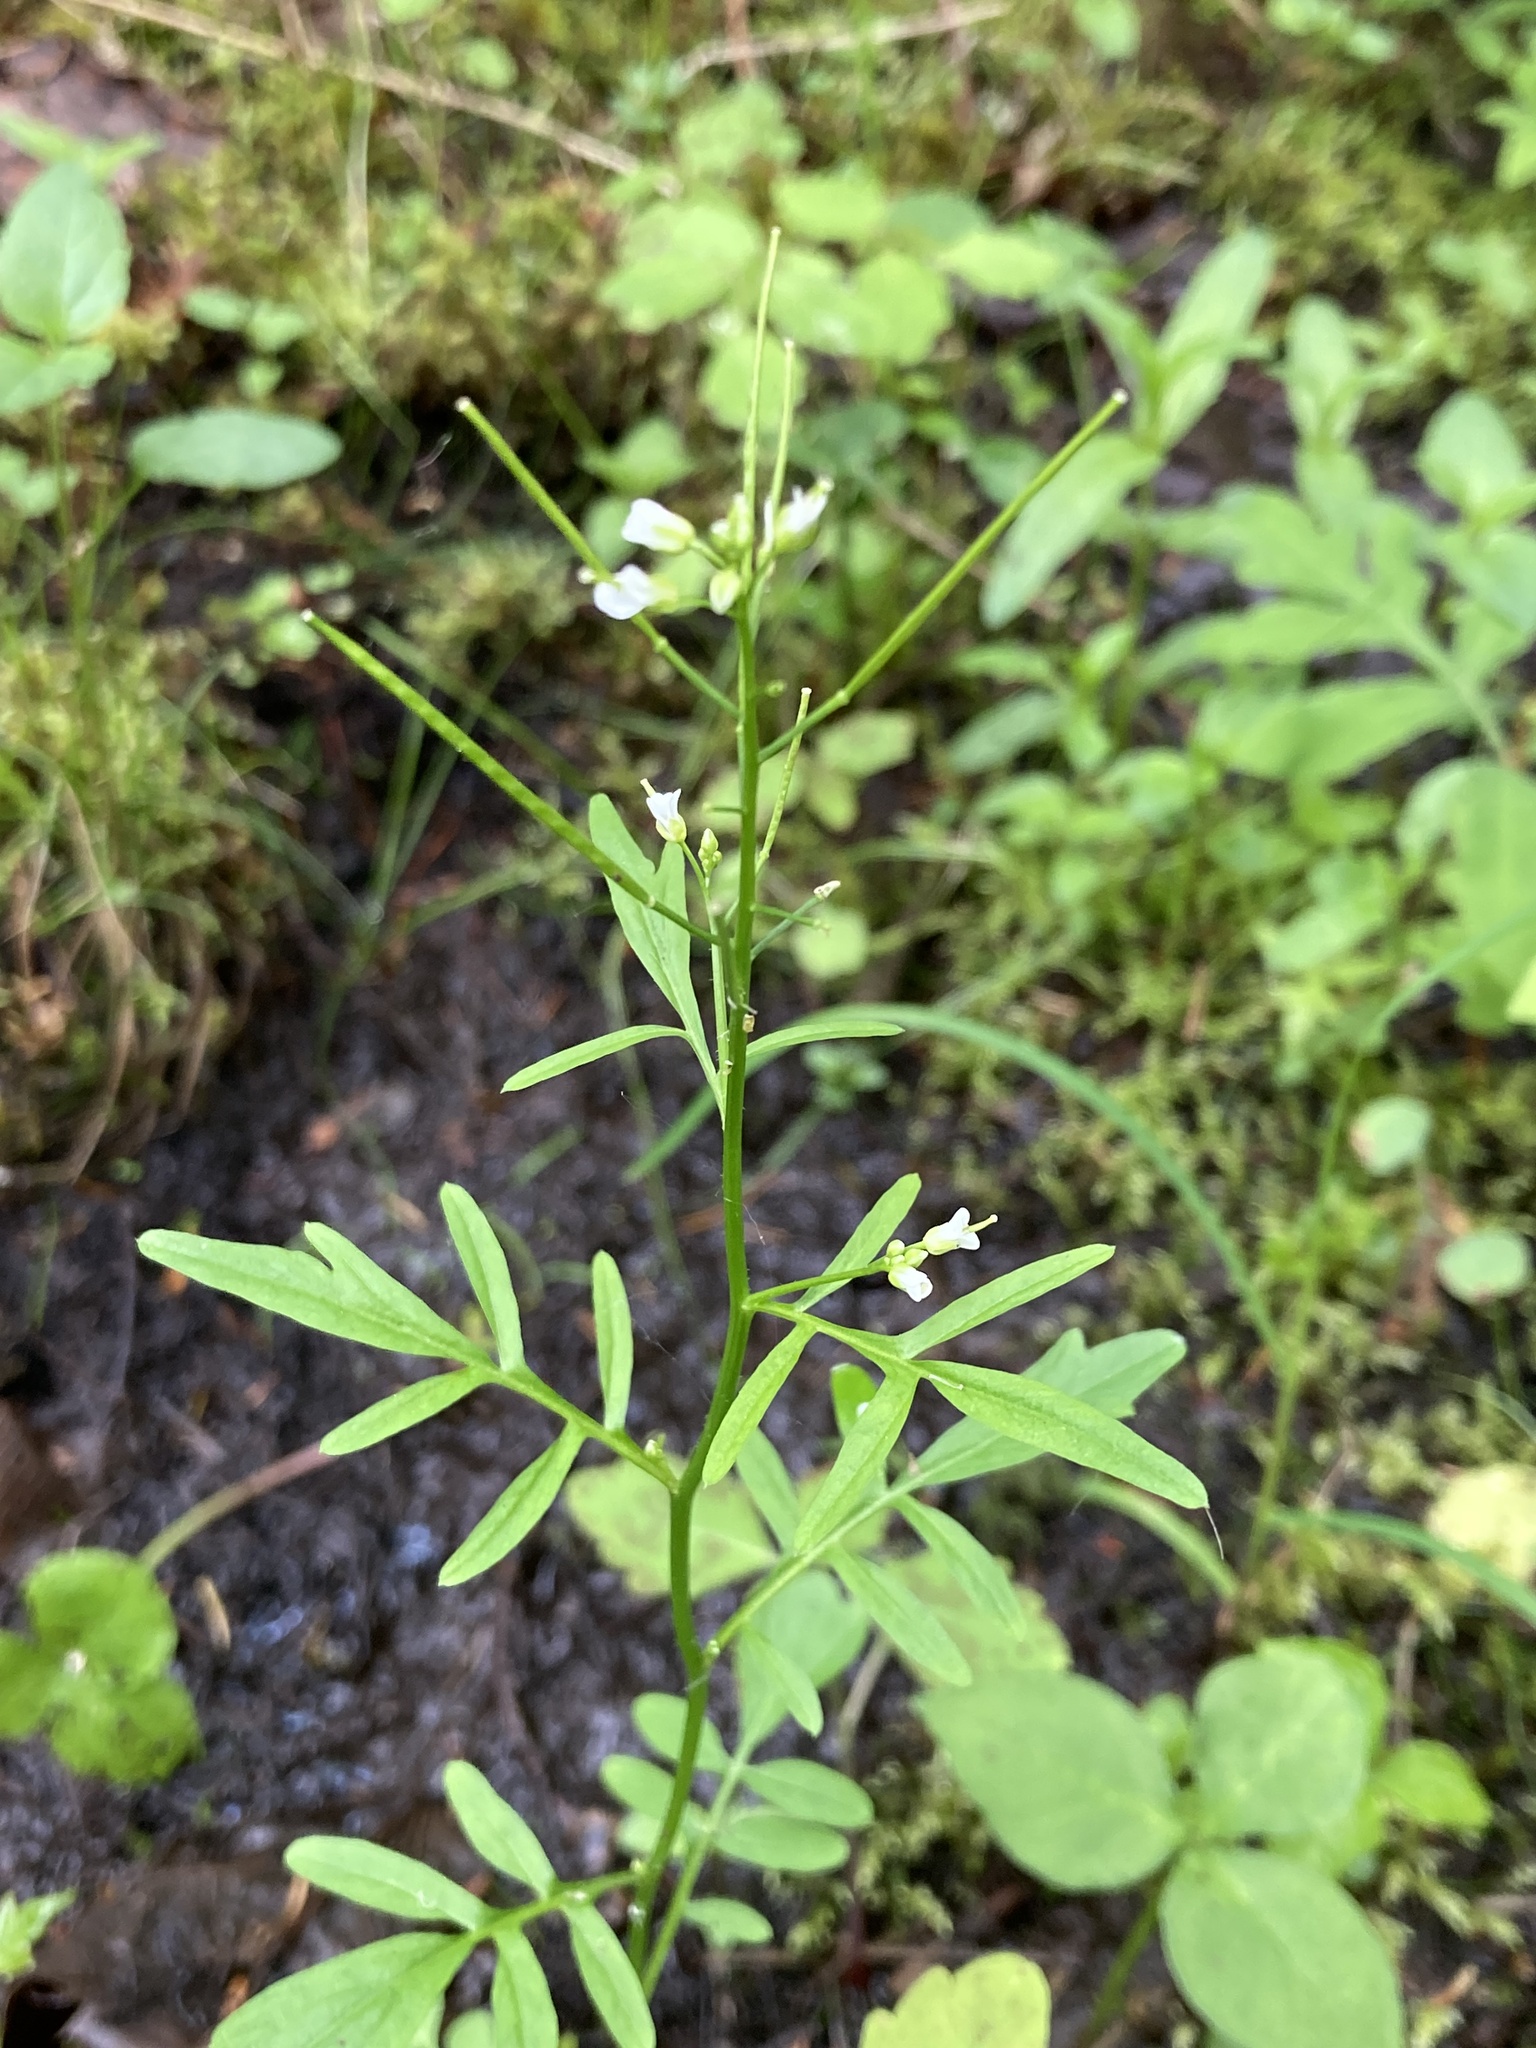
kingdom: Plantae
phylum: Tracheophyta
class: Magnoliopsida
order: Brassicales
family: Brassicaceae
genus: Cardamine
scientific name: Cardamine pensylvanica
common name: Pennsylvania bittercress
